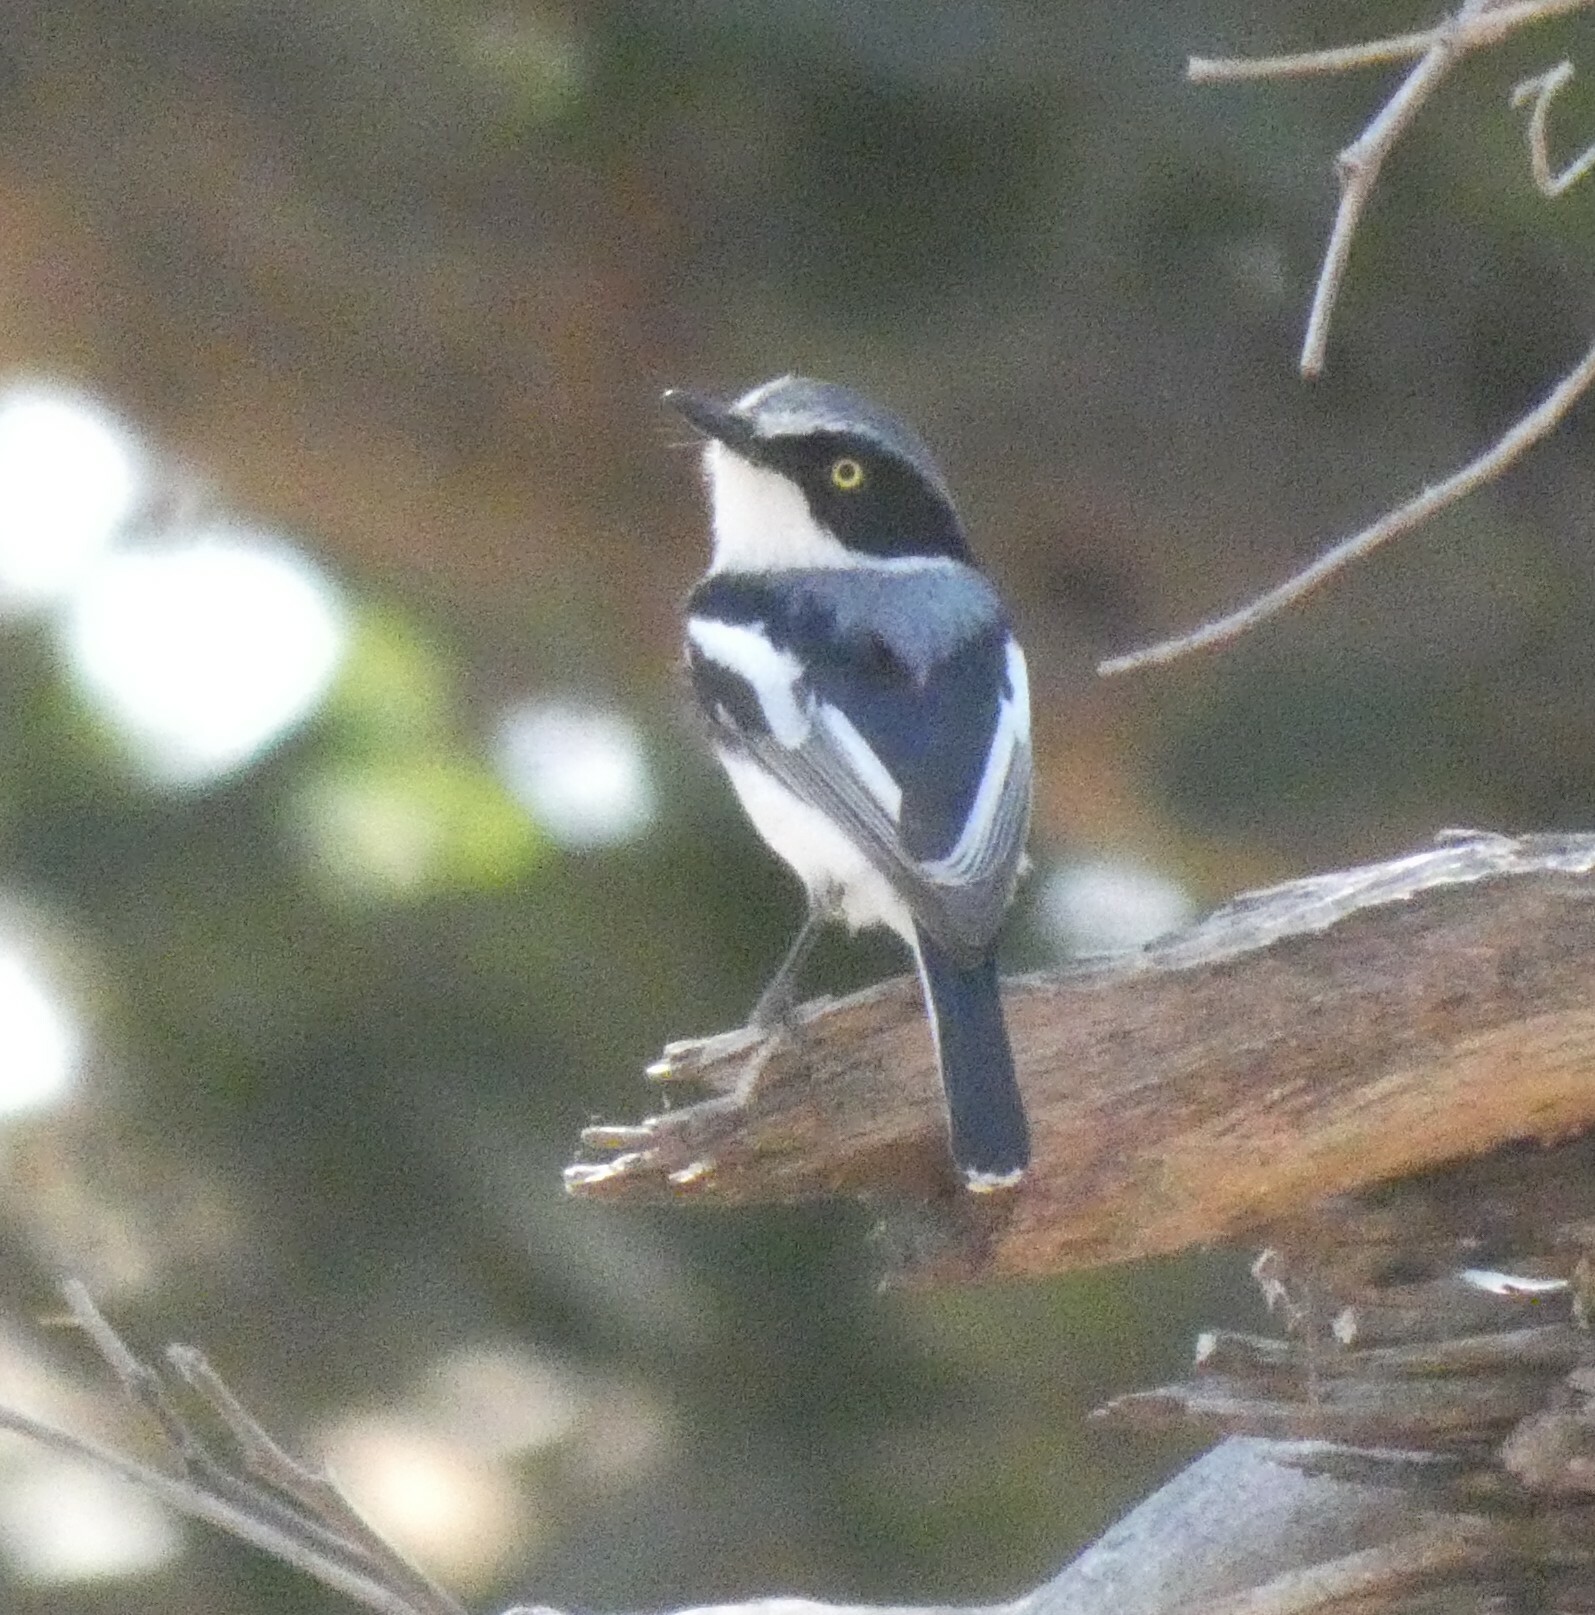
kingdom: Animalia
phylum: Chordata
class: Aves
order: Passeriformes
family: Platysteiridae
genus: Batis
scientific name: Batis molitor
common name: Chinspot batis
